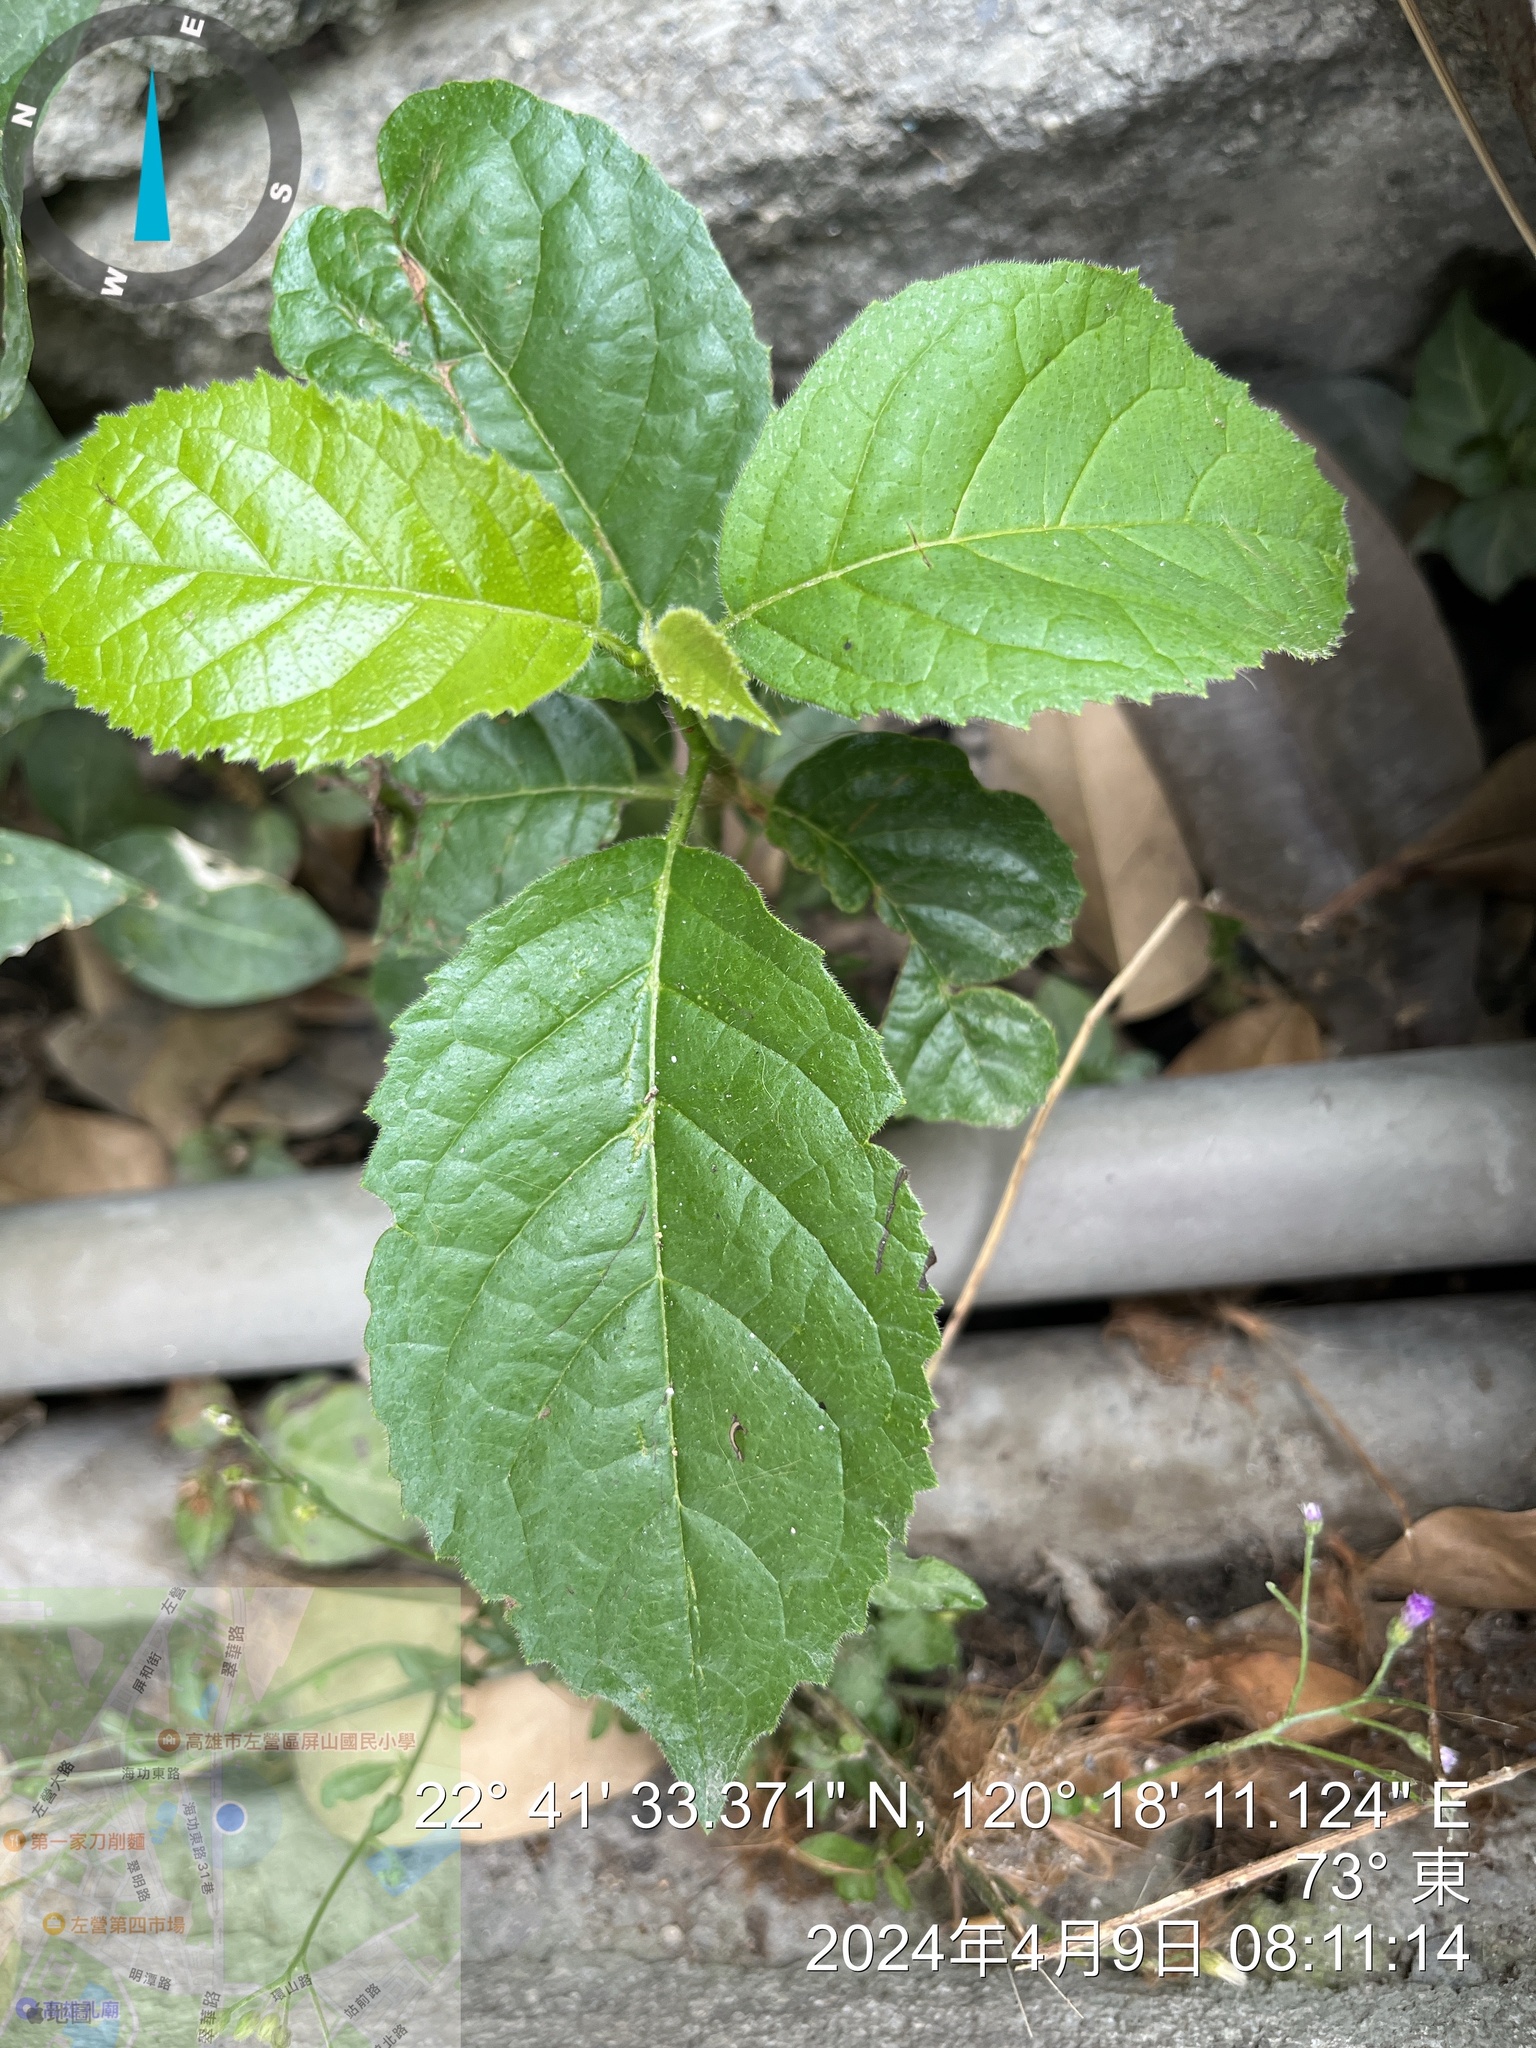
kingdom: Plantae
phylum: Tracheophyta
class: Magnoliopsida
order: Boraginales
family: Ehretiaceae
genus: Ehretia
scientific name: Ehretia resinosa
